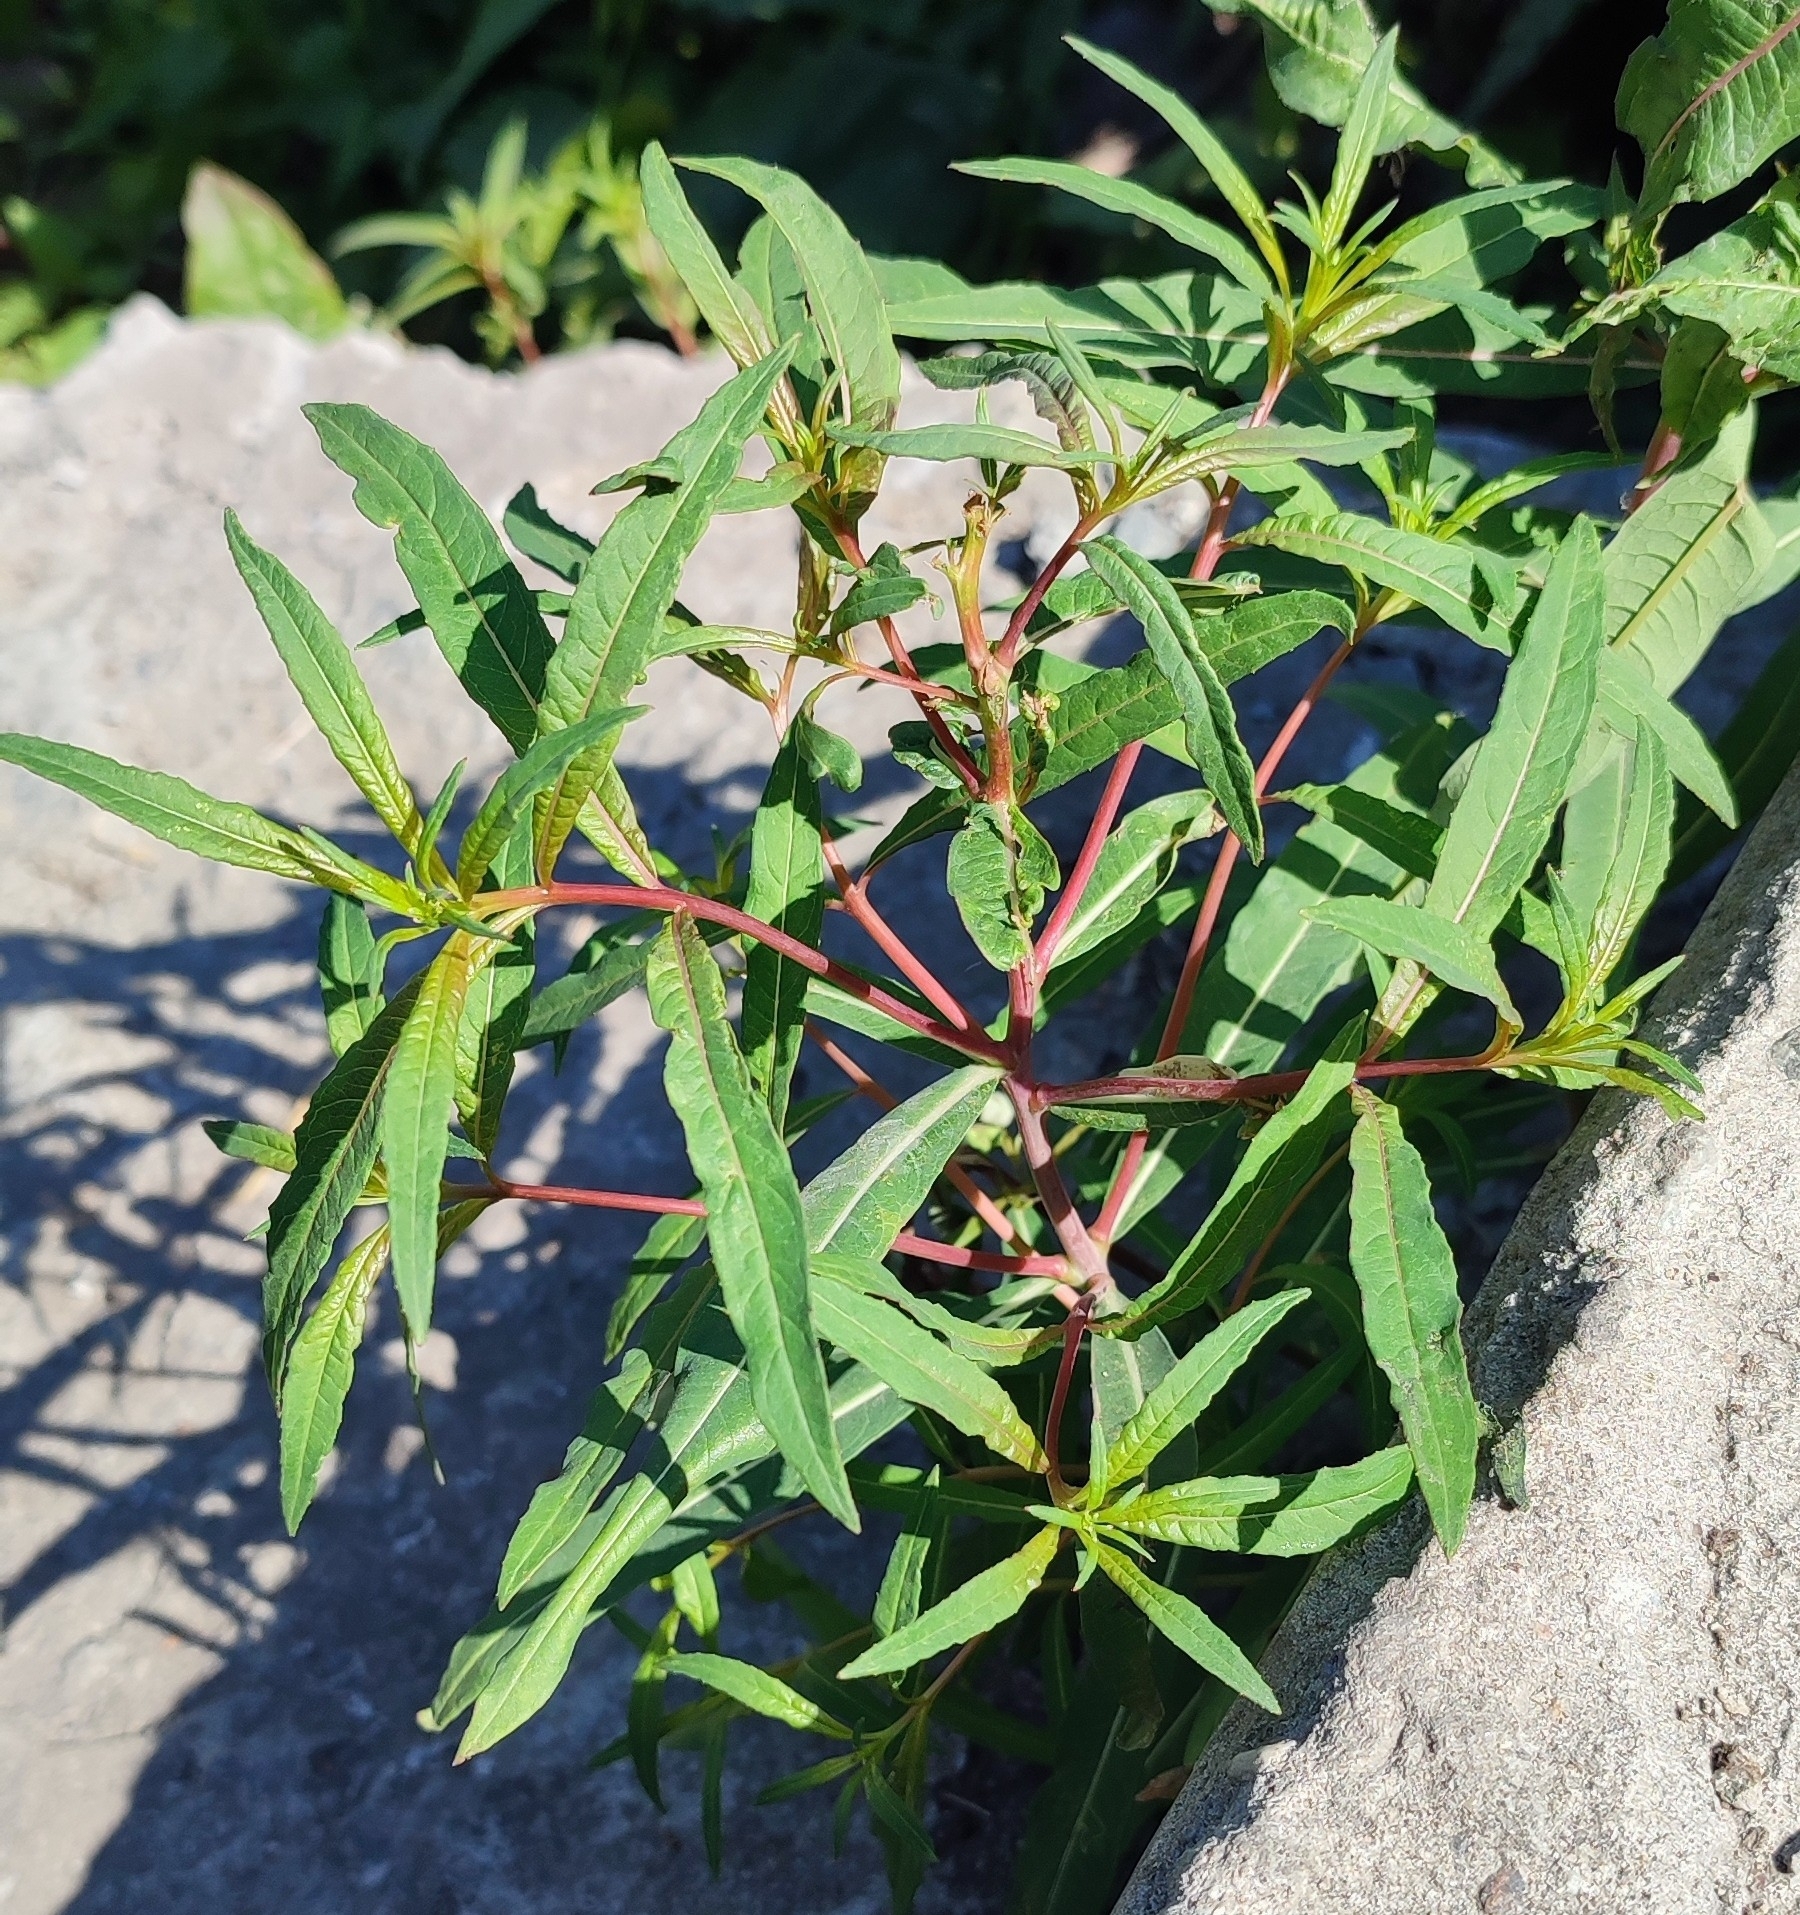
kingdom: Plantae
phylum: Tracheophyta
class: Magnoliopsida
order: Myrtales
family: Onagraceae
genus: Chamaenerion
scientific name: Chamaenerion angustifolium
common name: Fireweed
